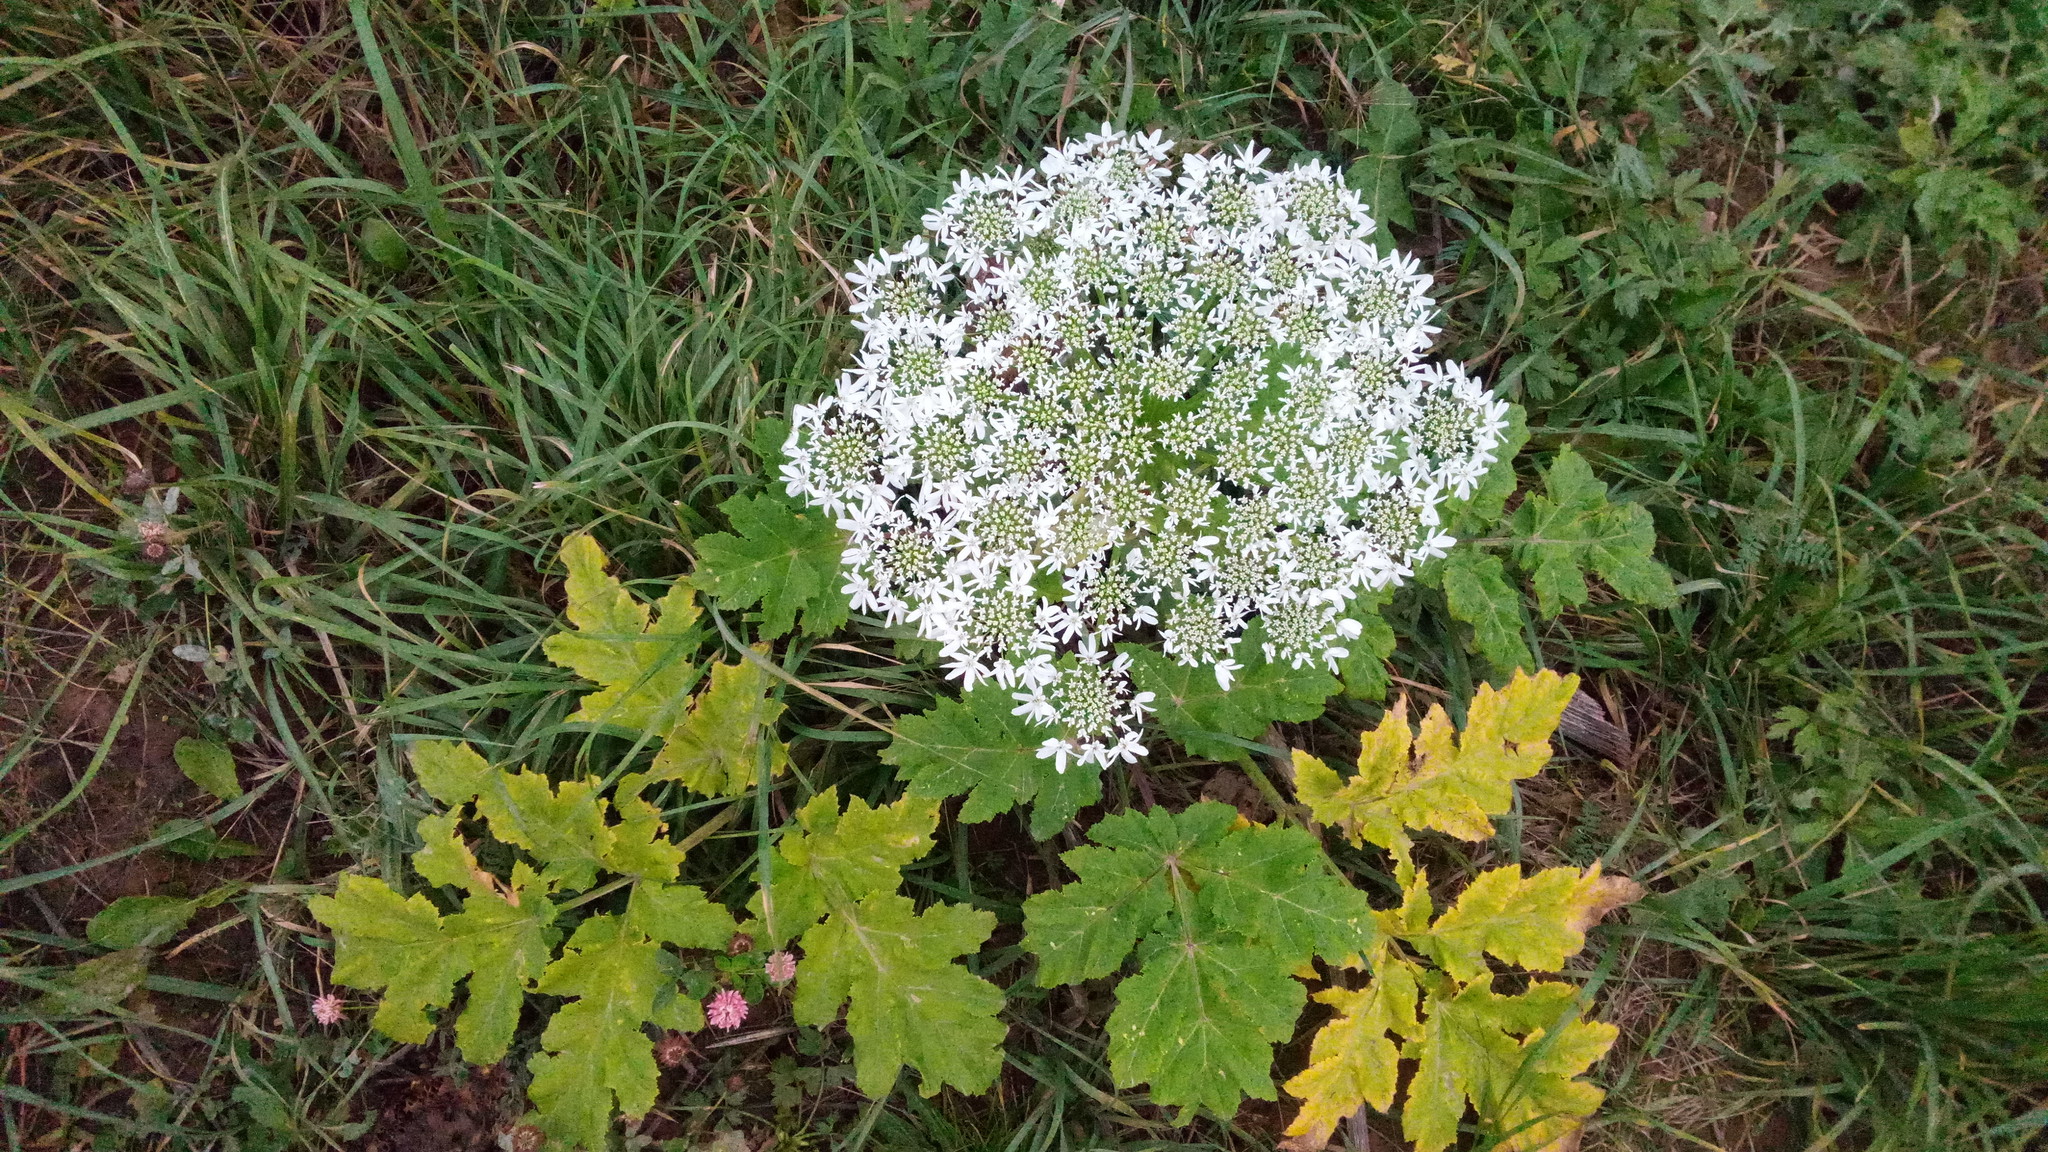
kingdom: Plantae
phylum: Tracheophyta
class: Magnoliopsida
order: Apiales
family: Apiaceae
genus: Heracleum
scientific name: Heracleum sosnowskyi
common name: Sosnowsky's hogweed
